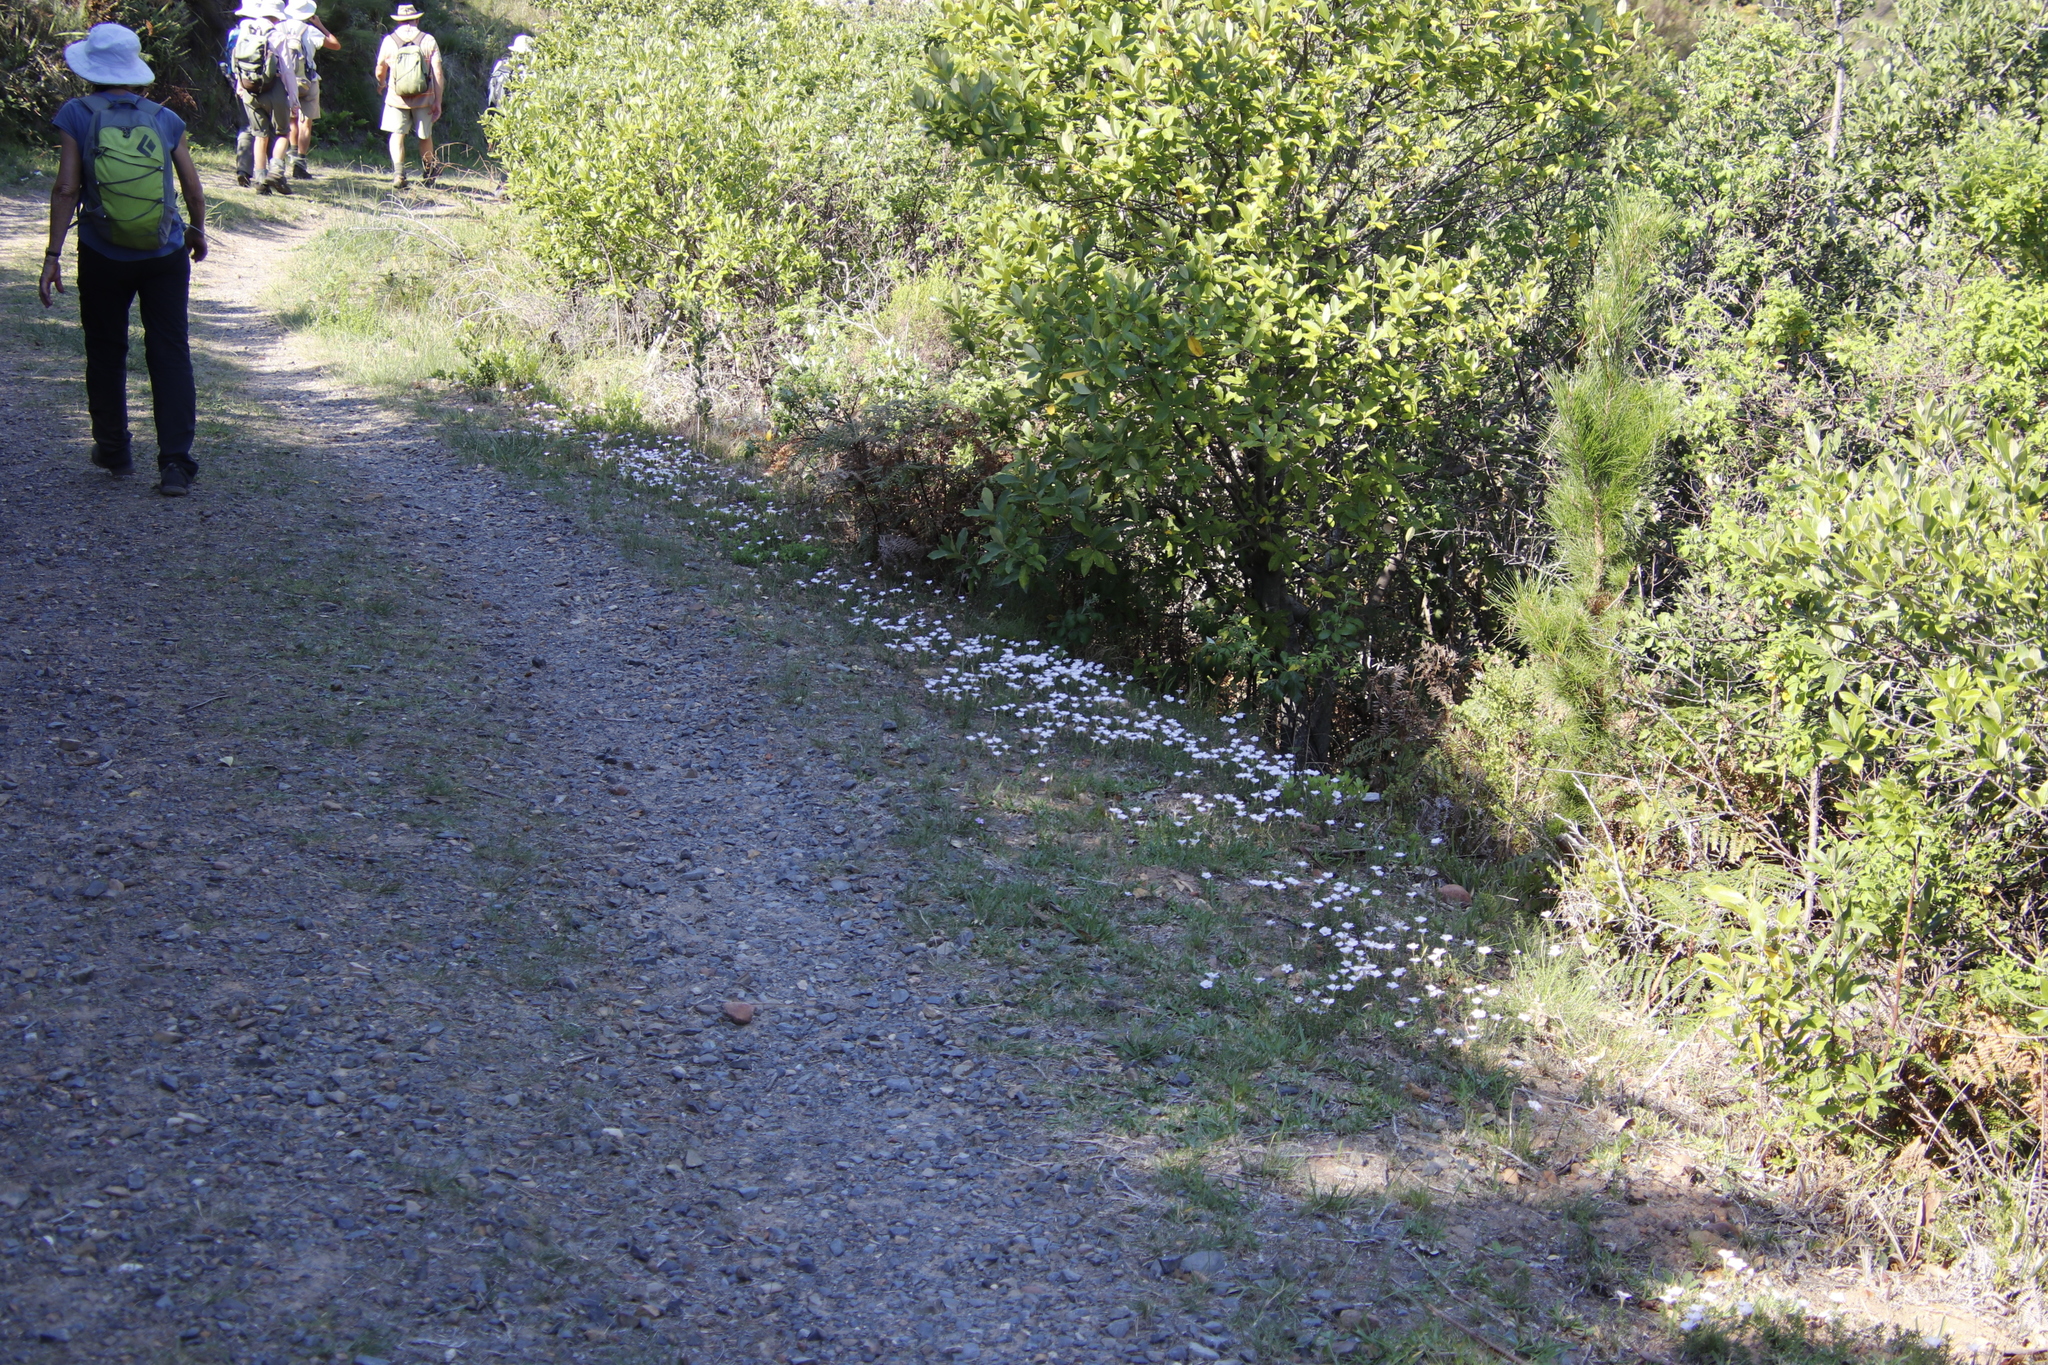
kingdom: Plantae
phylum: Tracheophyta
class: Magnoliopsida
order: Oxalidales
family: Oxalidaceae
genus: Oxalis
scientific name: Oxalis
